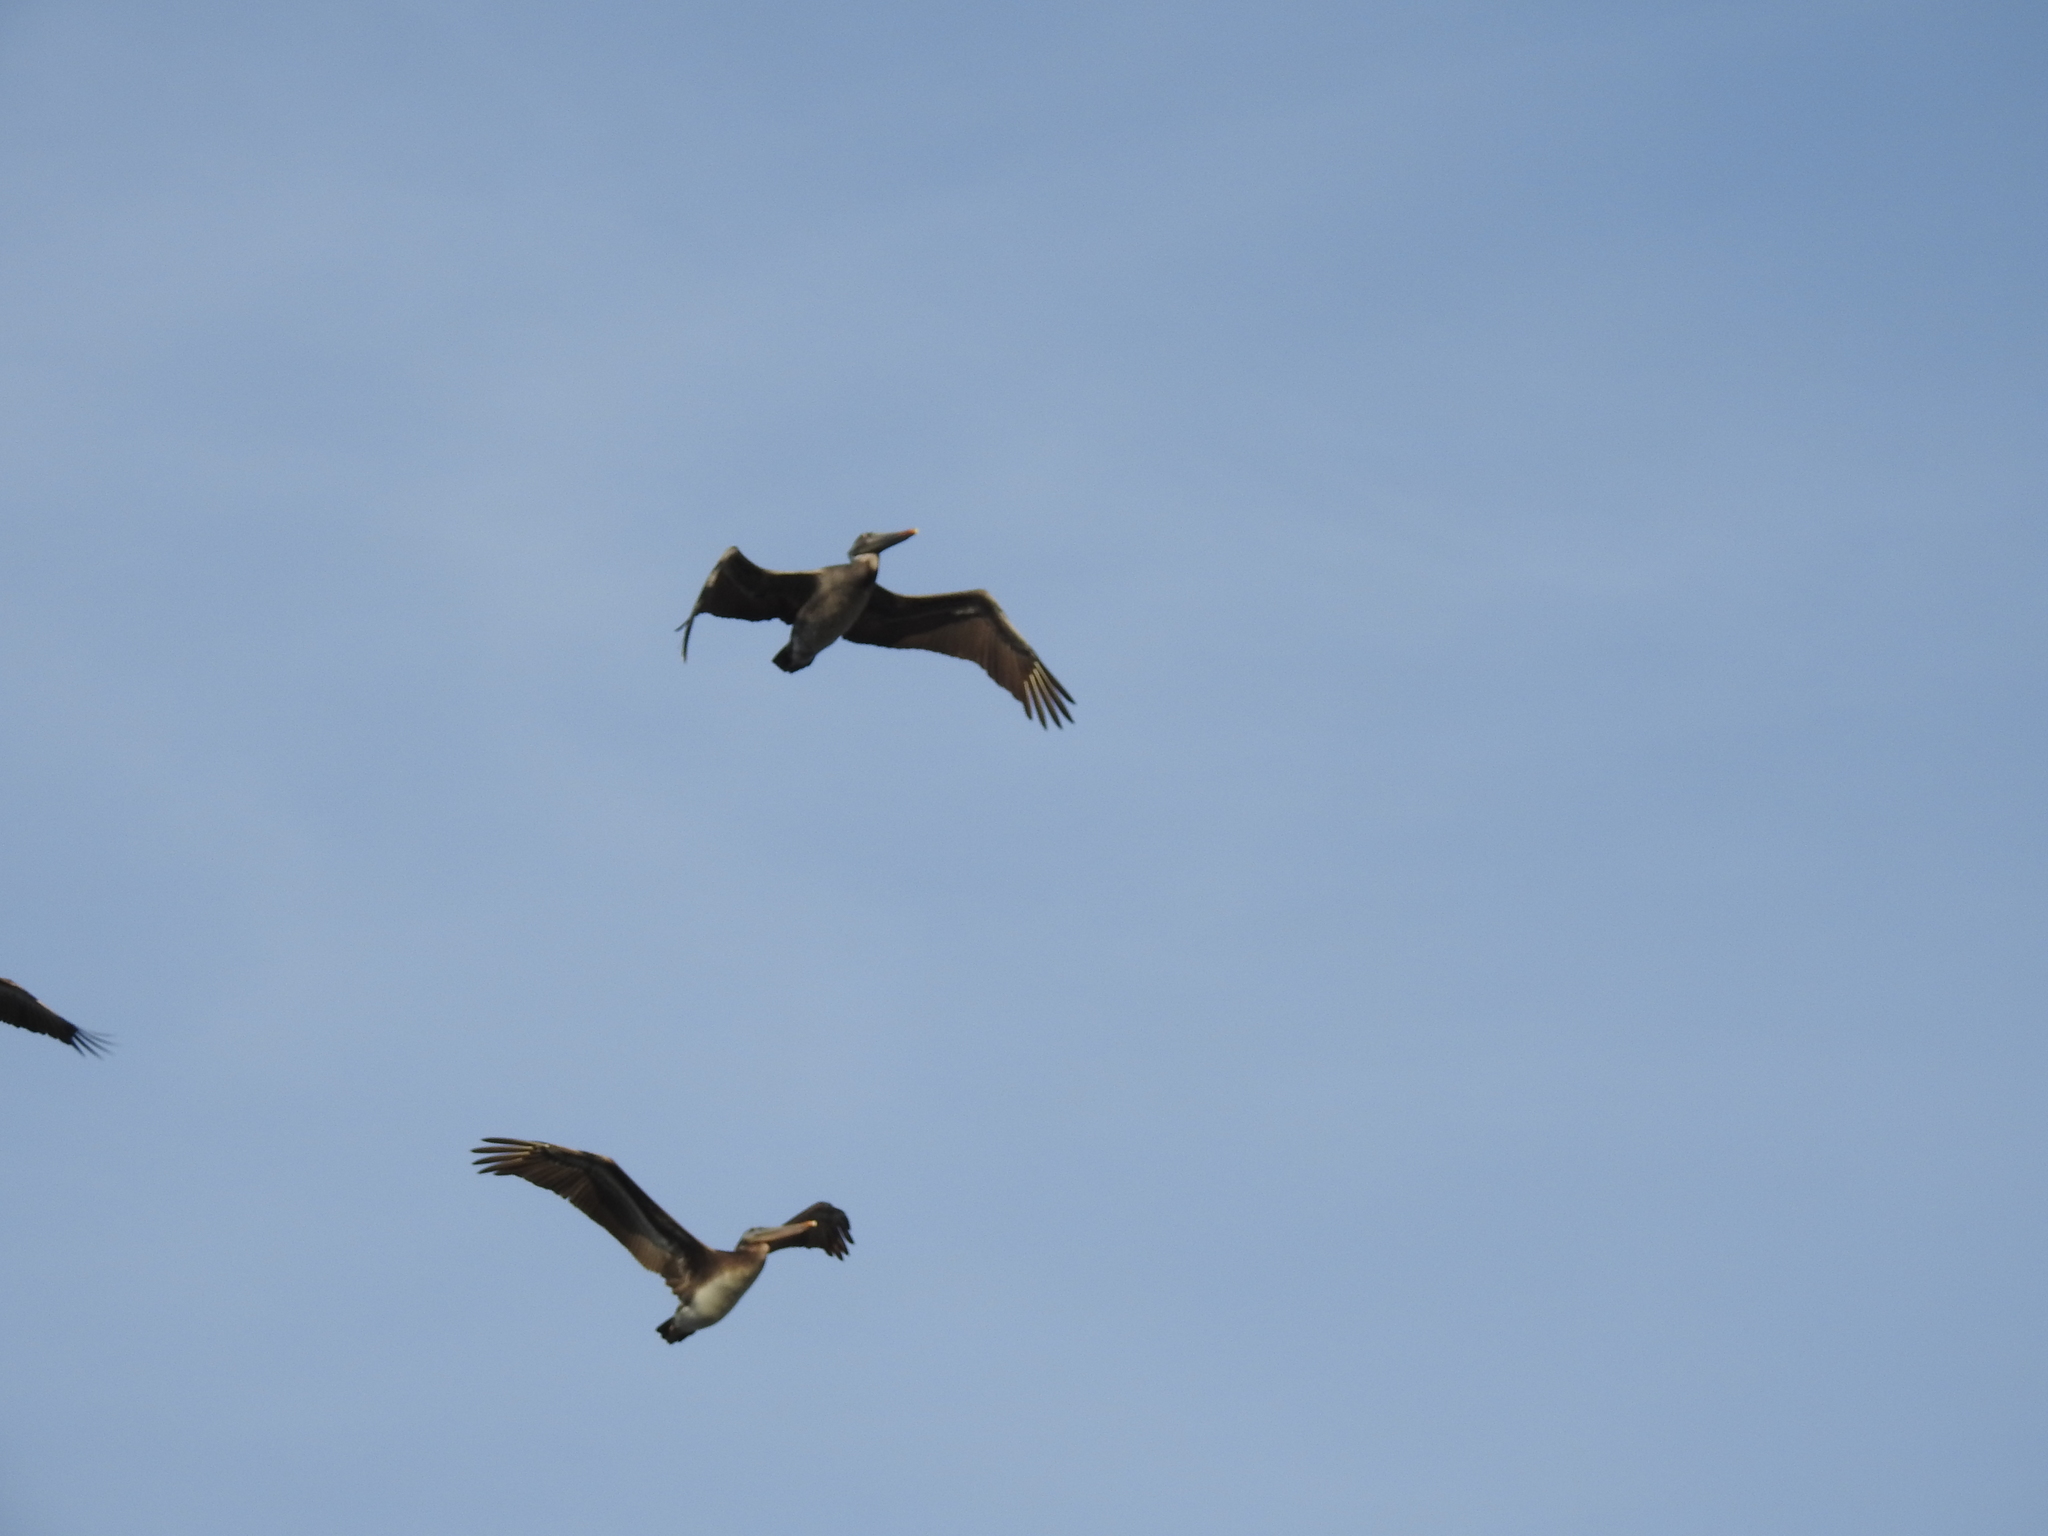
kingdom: Animalia
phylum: Chordata
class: Aves
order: Pelecaniformes
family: Pelecanidae
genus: Pelecanus
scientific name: Pelecanus occidentalis
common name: Brown pelican
